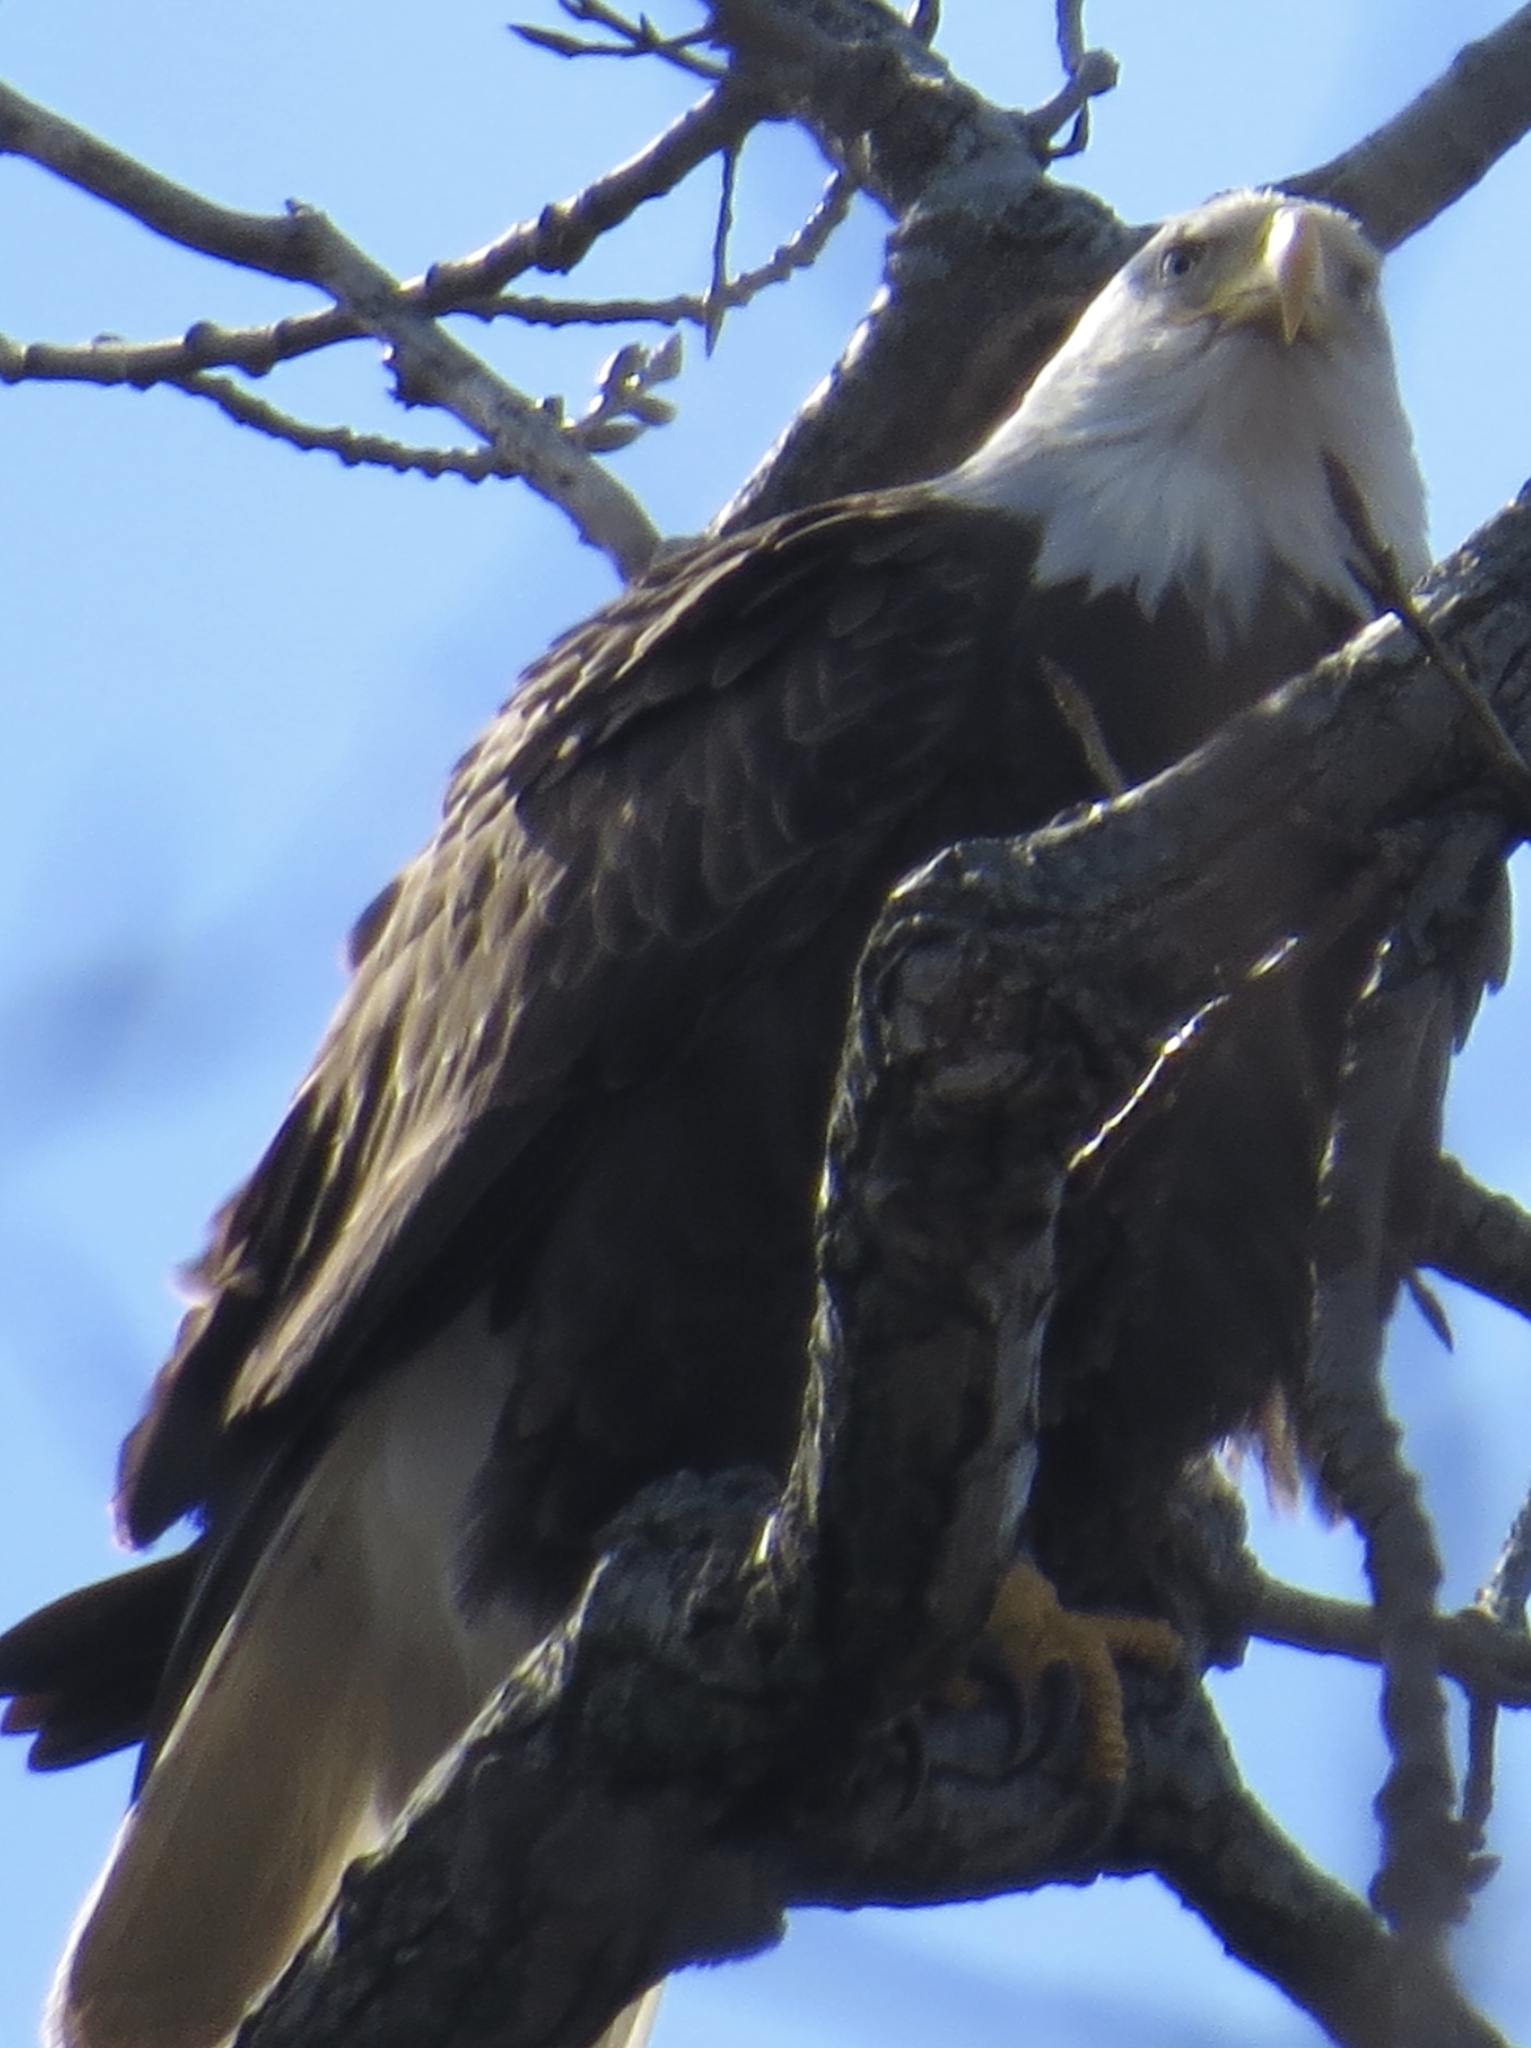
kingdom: Animalia
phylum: Chordata
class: Aves
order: Accipitriformes
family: Accipitridae
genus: Haliaeetus
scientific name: Haliaeetus leucocephalus
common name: Bald eagle
